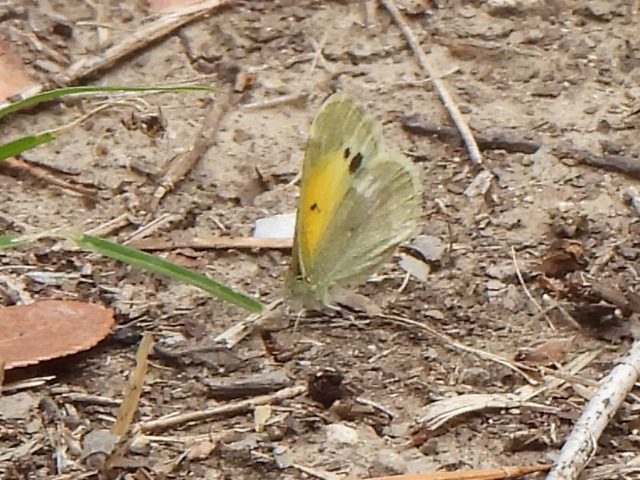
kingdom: Animalia
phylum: Arthropoda
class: Insecta
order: Lepidoptera
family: Pieridae
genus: Nathalis
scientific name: Nathalis iole
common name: Dainty sulphur
